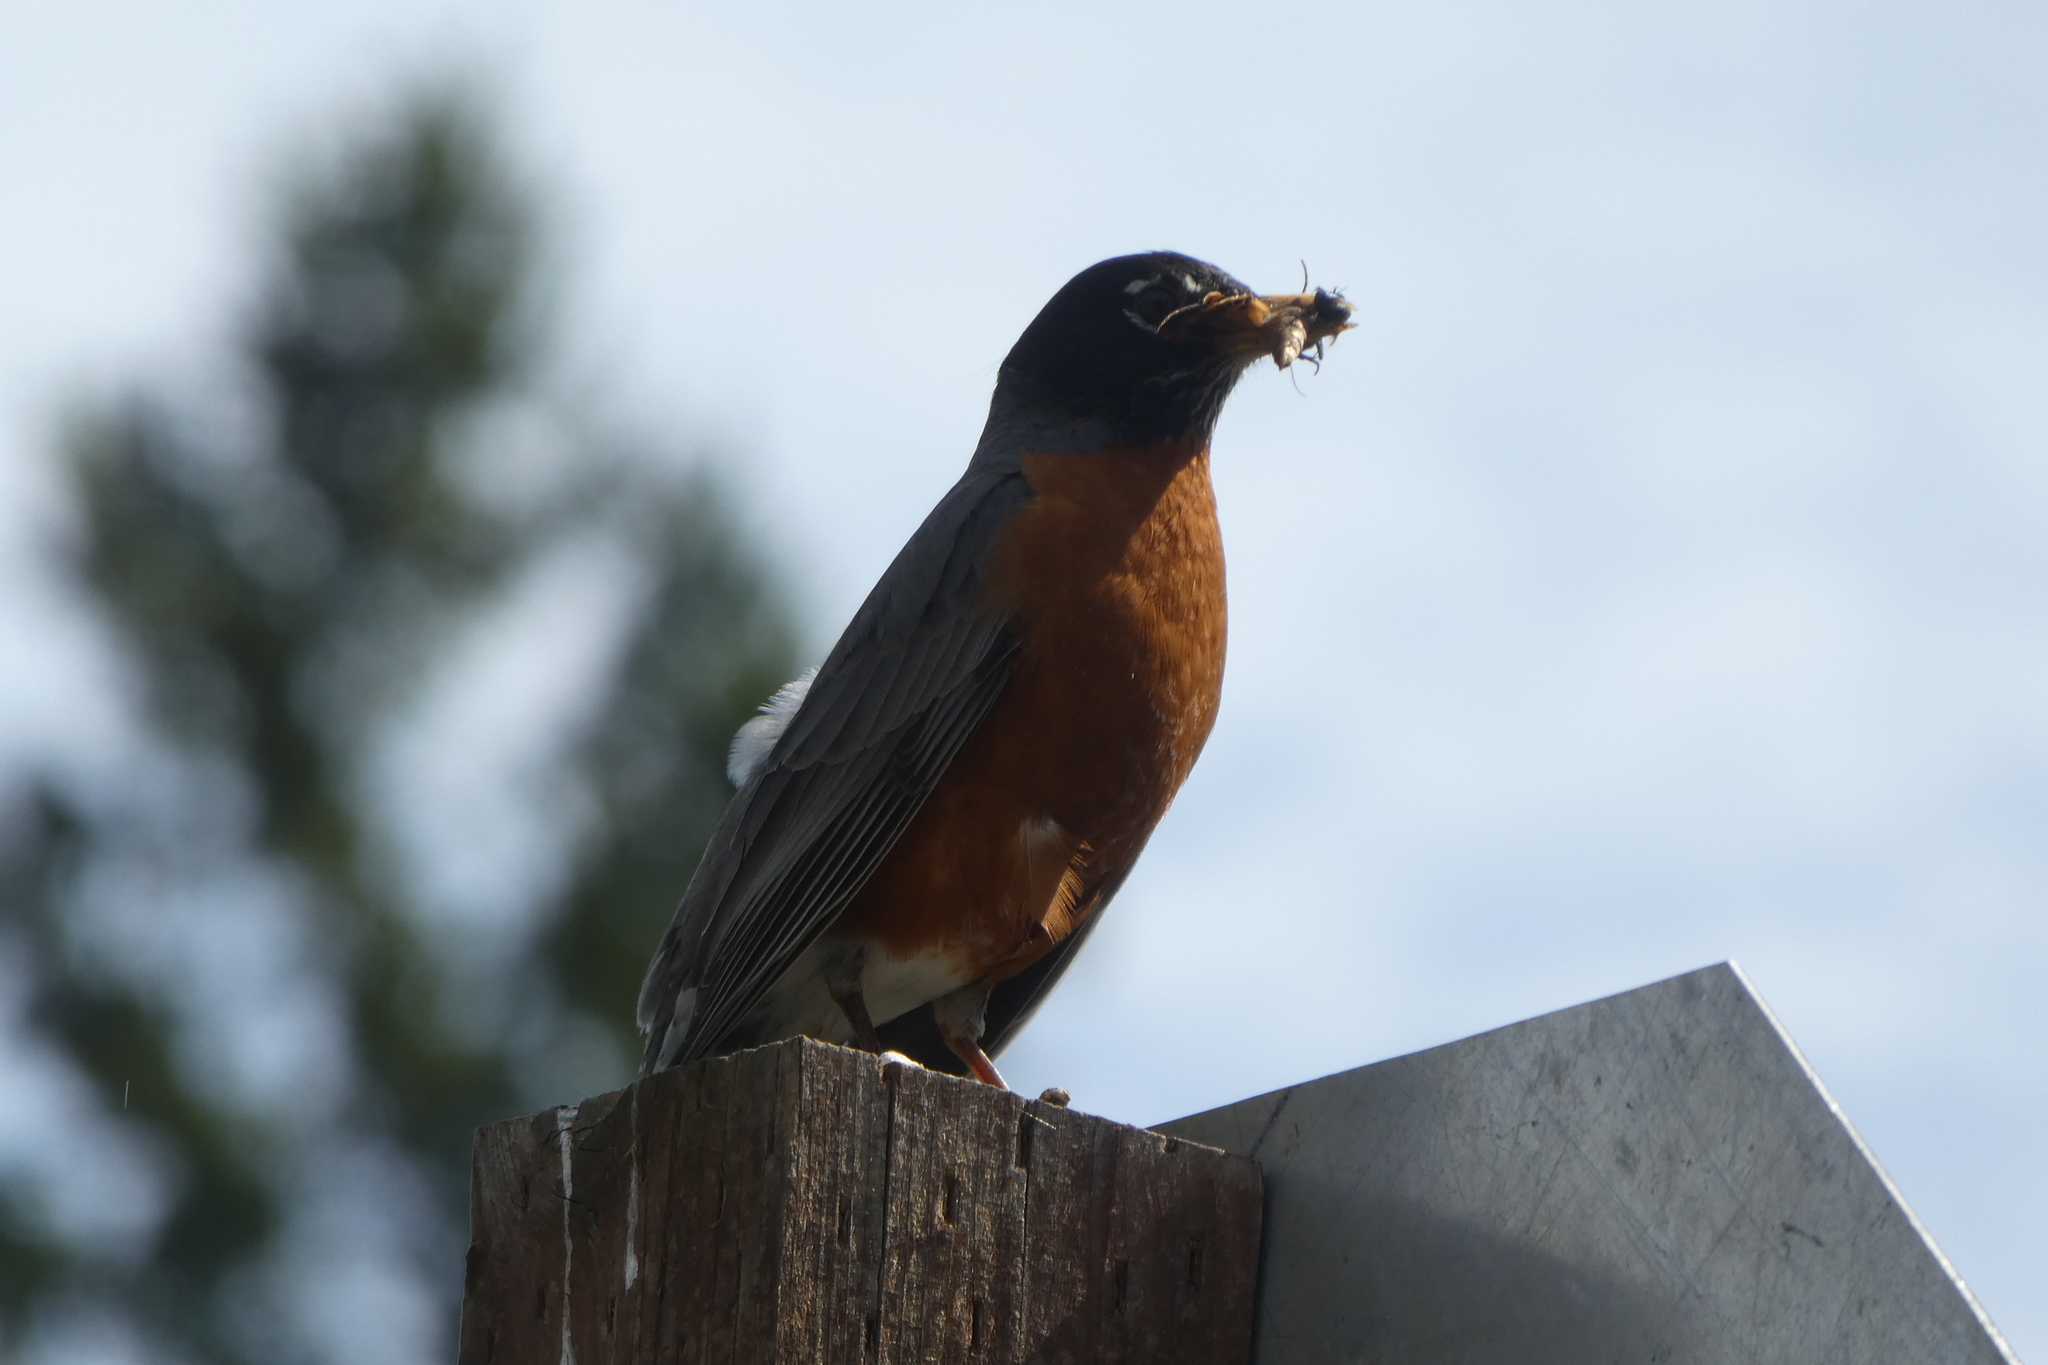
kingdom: Animalia
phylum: Chordata
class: Aves
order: Passeriformes
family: Turdidae
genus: Turdus
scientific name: Turdus migratorius
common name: American robin
